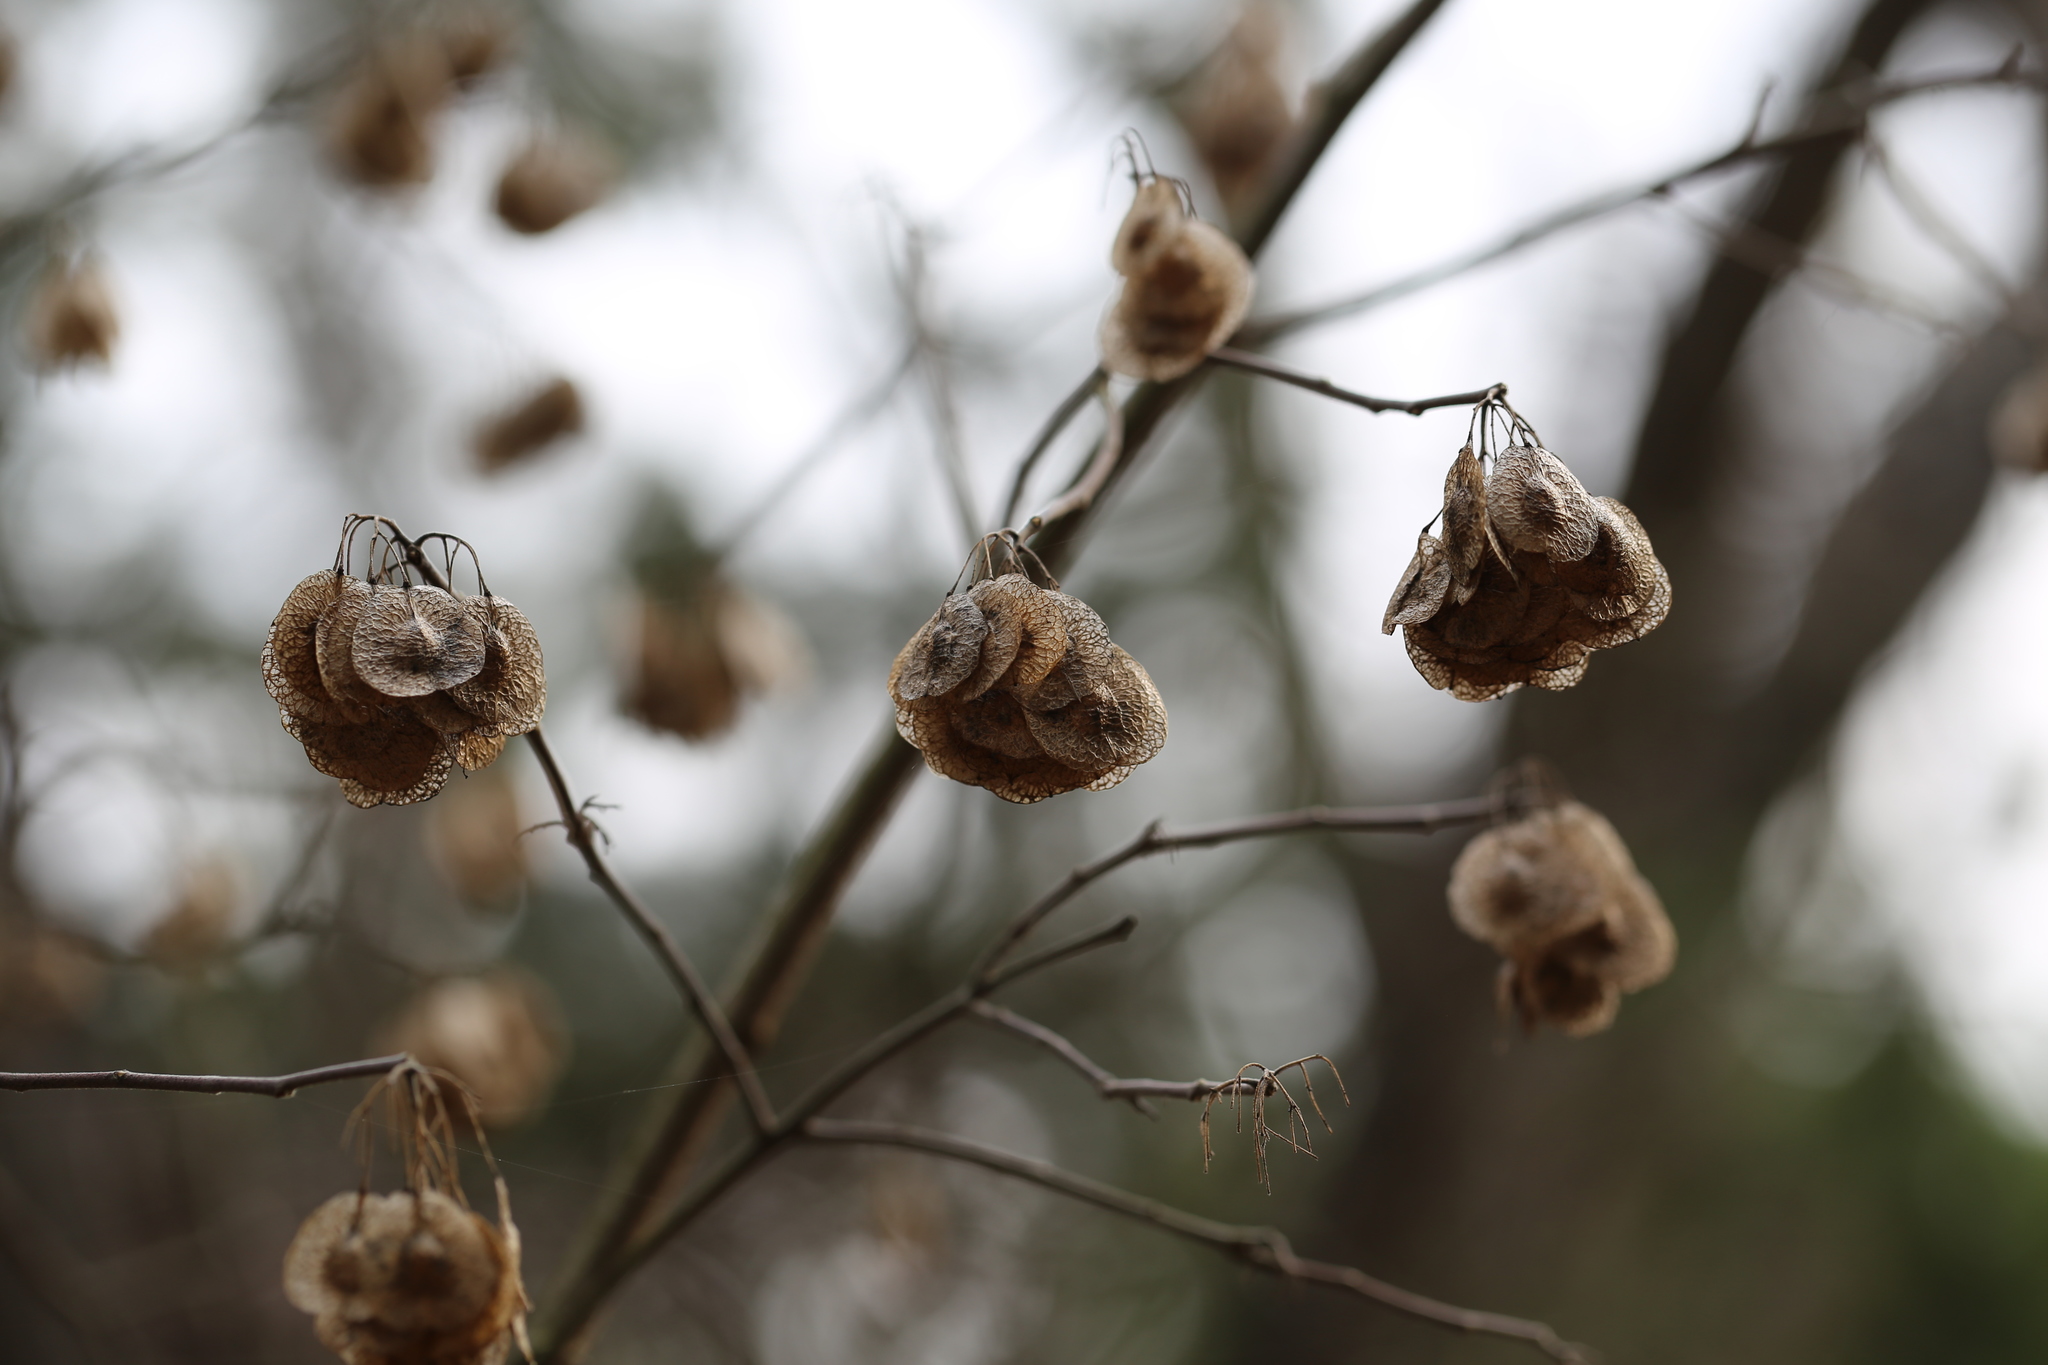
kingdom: Plantae
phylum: Tracheophyta
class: Magnoliopsida
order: Sapindales
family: Rutaceae
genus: Ptelea
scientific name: Ptelea trifoliata
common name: Common hop-tree
